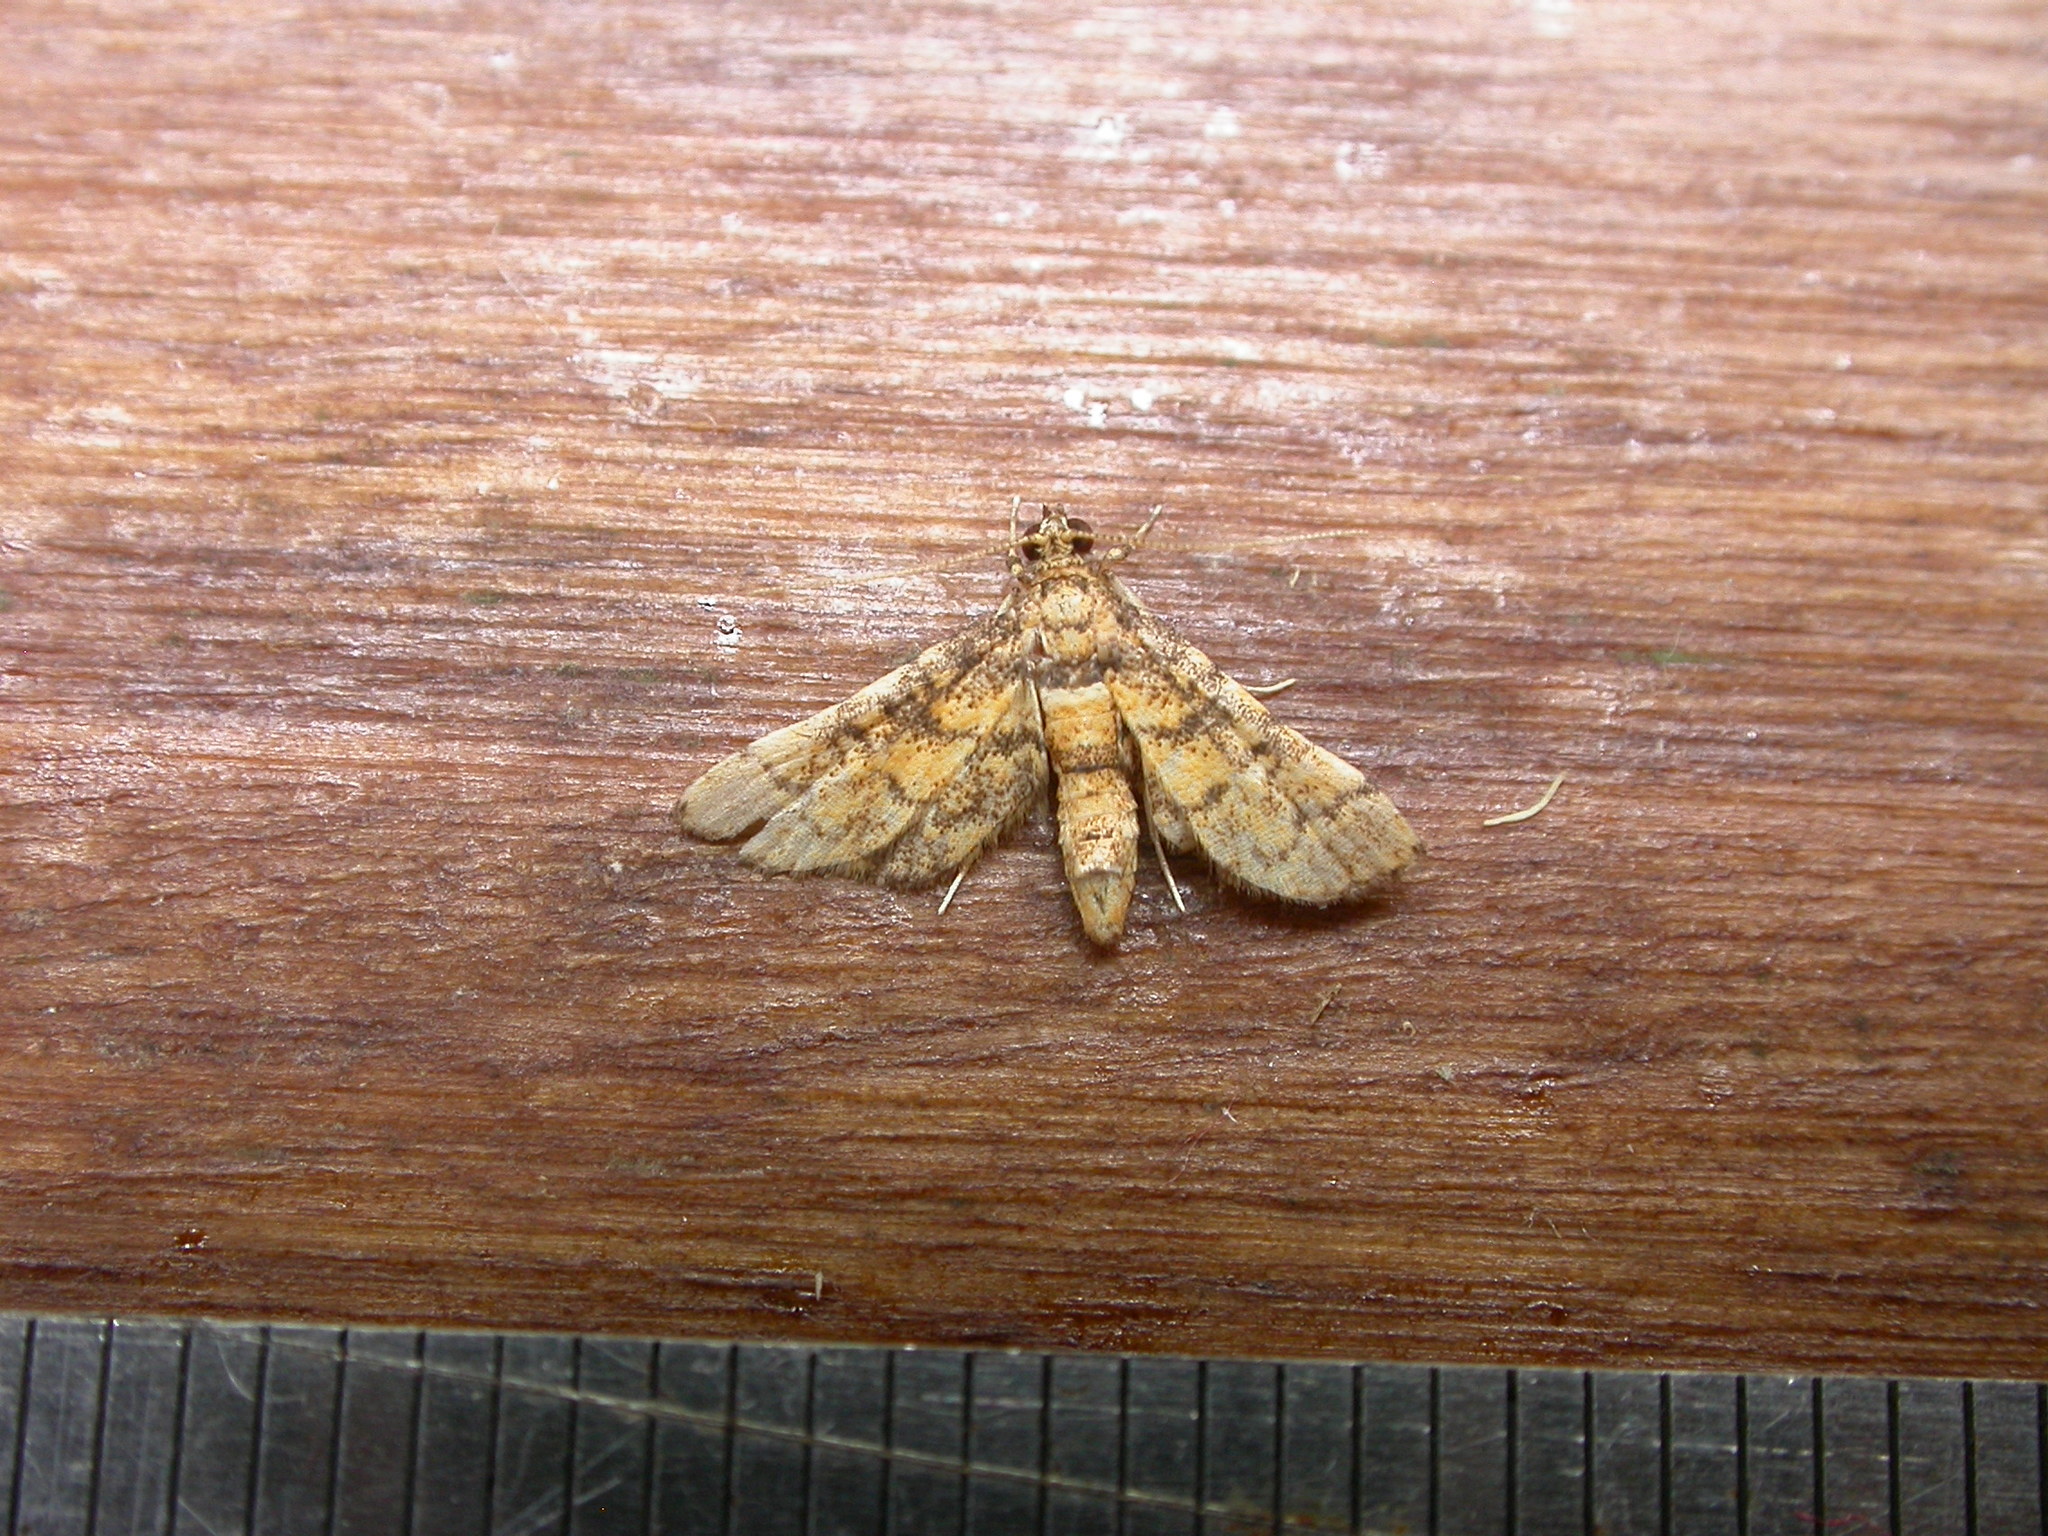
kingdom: Animalia
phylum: Arthropoda
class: Insecta
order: Lepidoptera
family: Crambidae
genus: Metasia
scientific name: Metasia tiasalis
